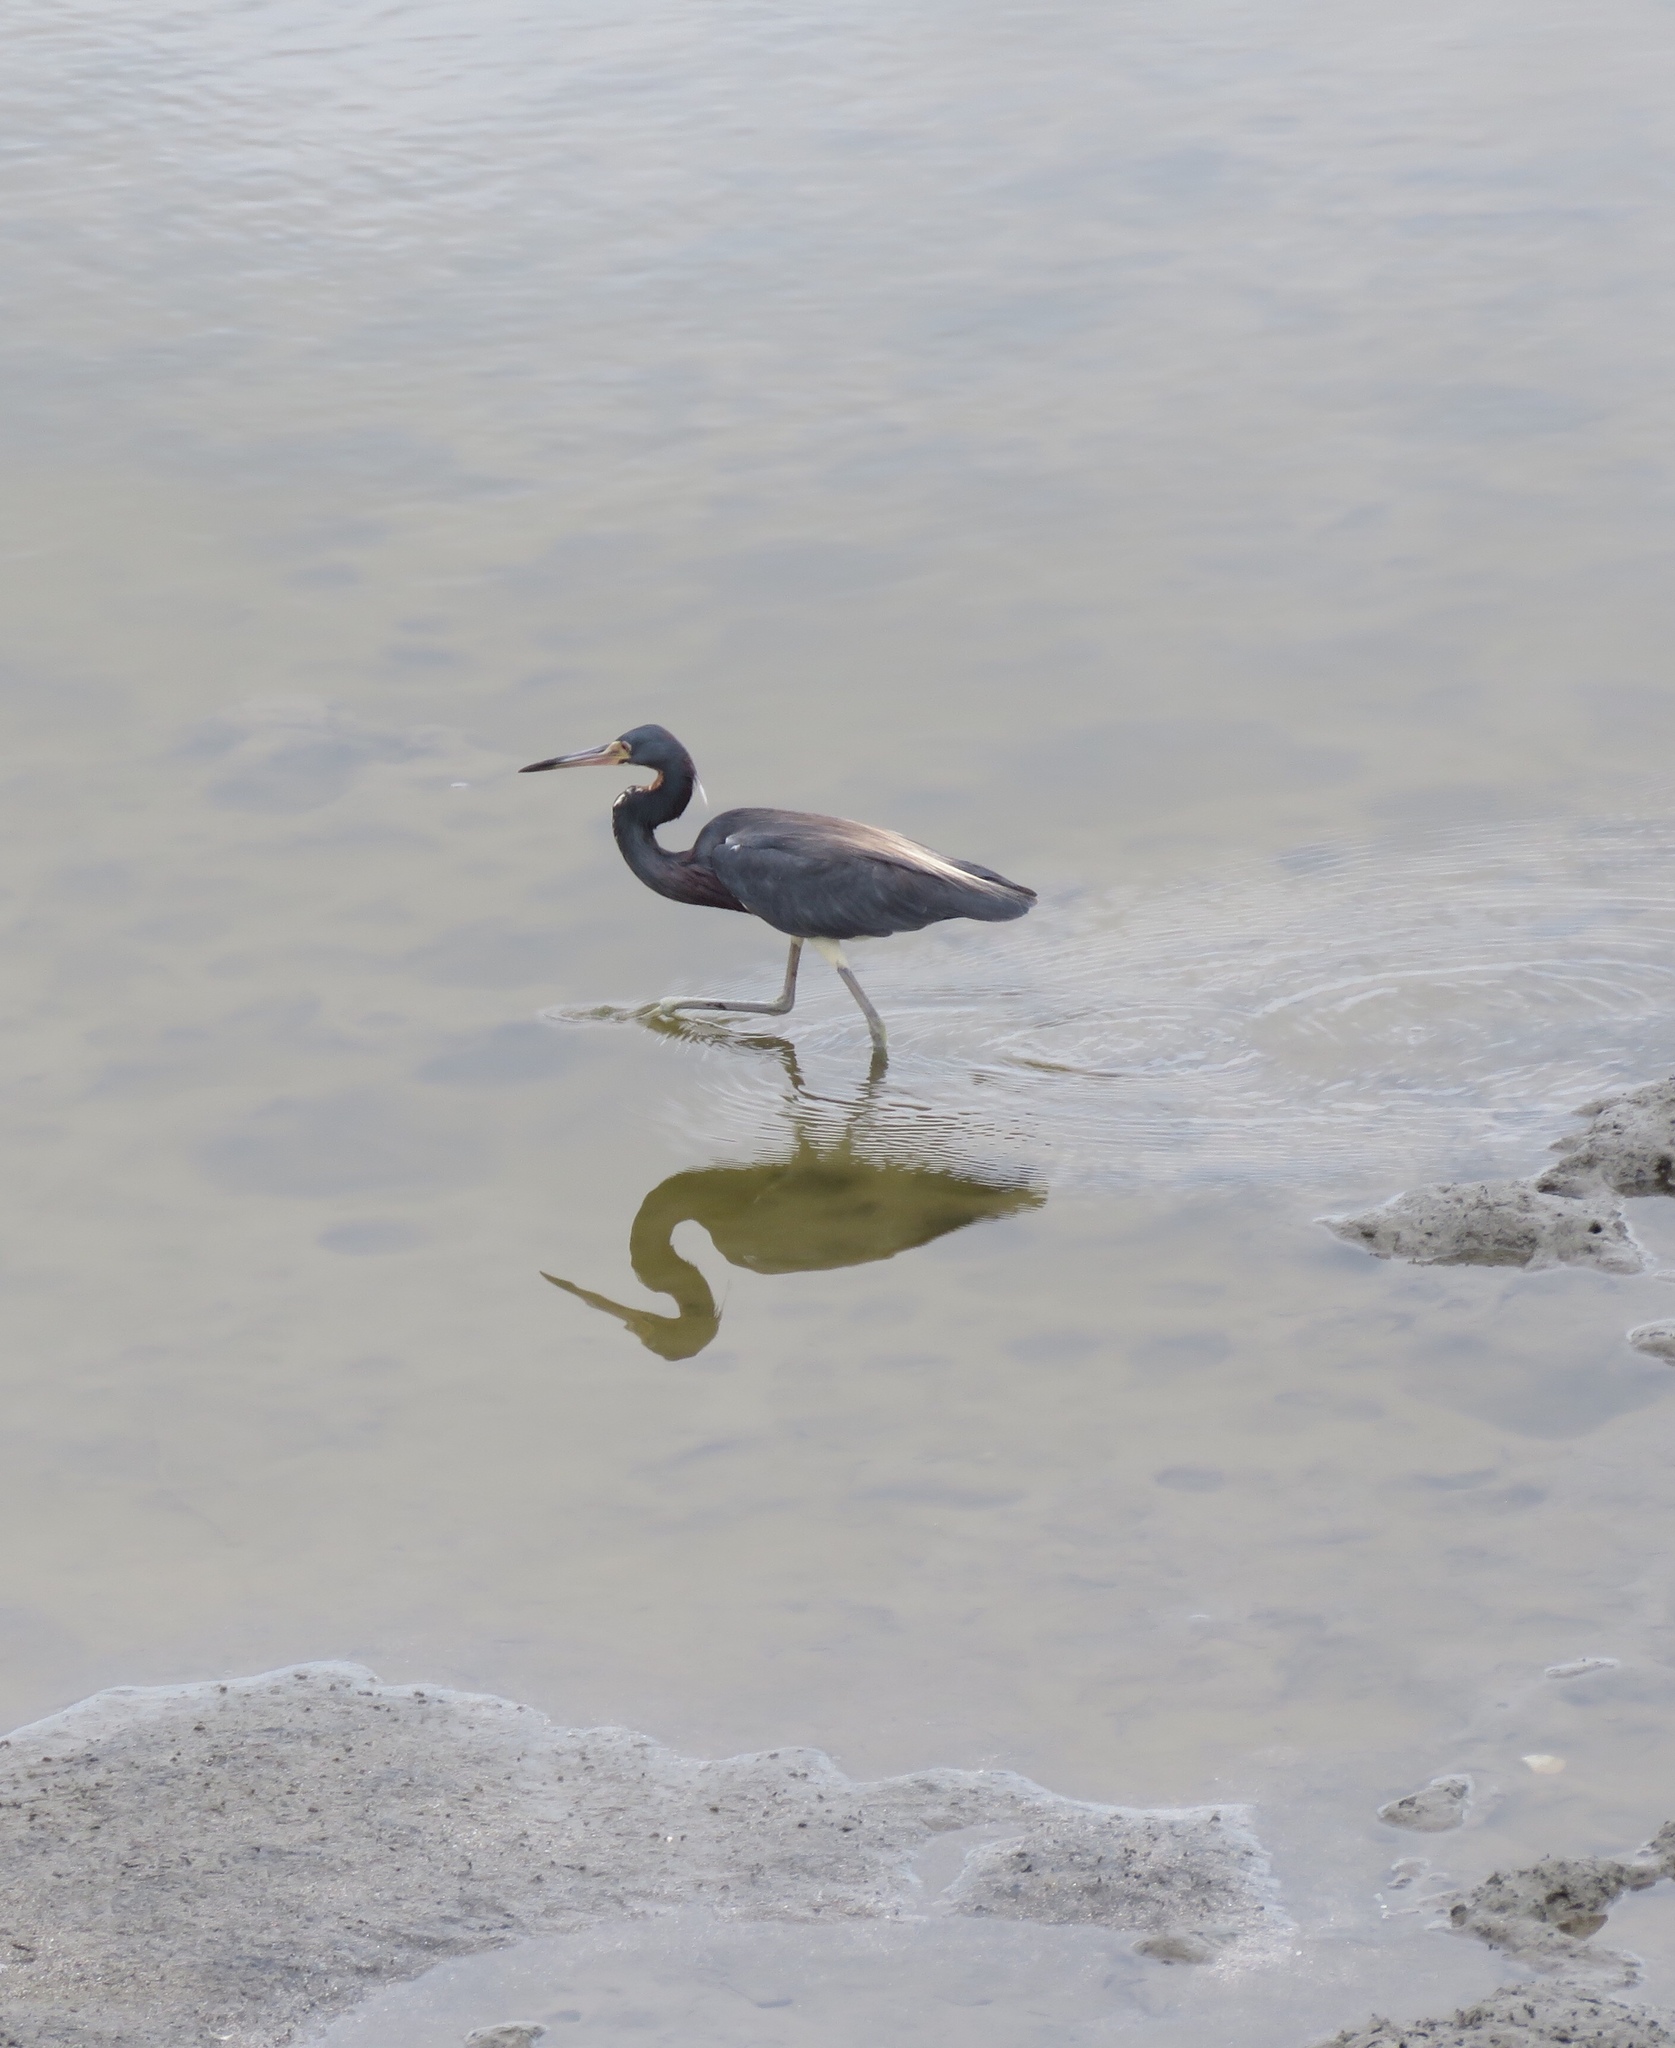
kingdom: Animalia
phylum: Chordata
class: Aves
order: Pelecaniformes
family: Ardeidae
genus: Egretta
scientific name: Egretta tricolor
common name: Tricolored heron
